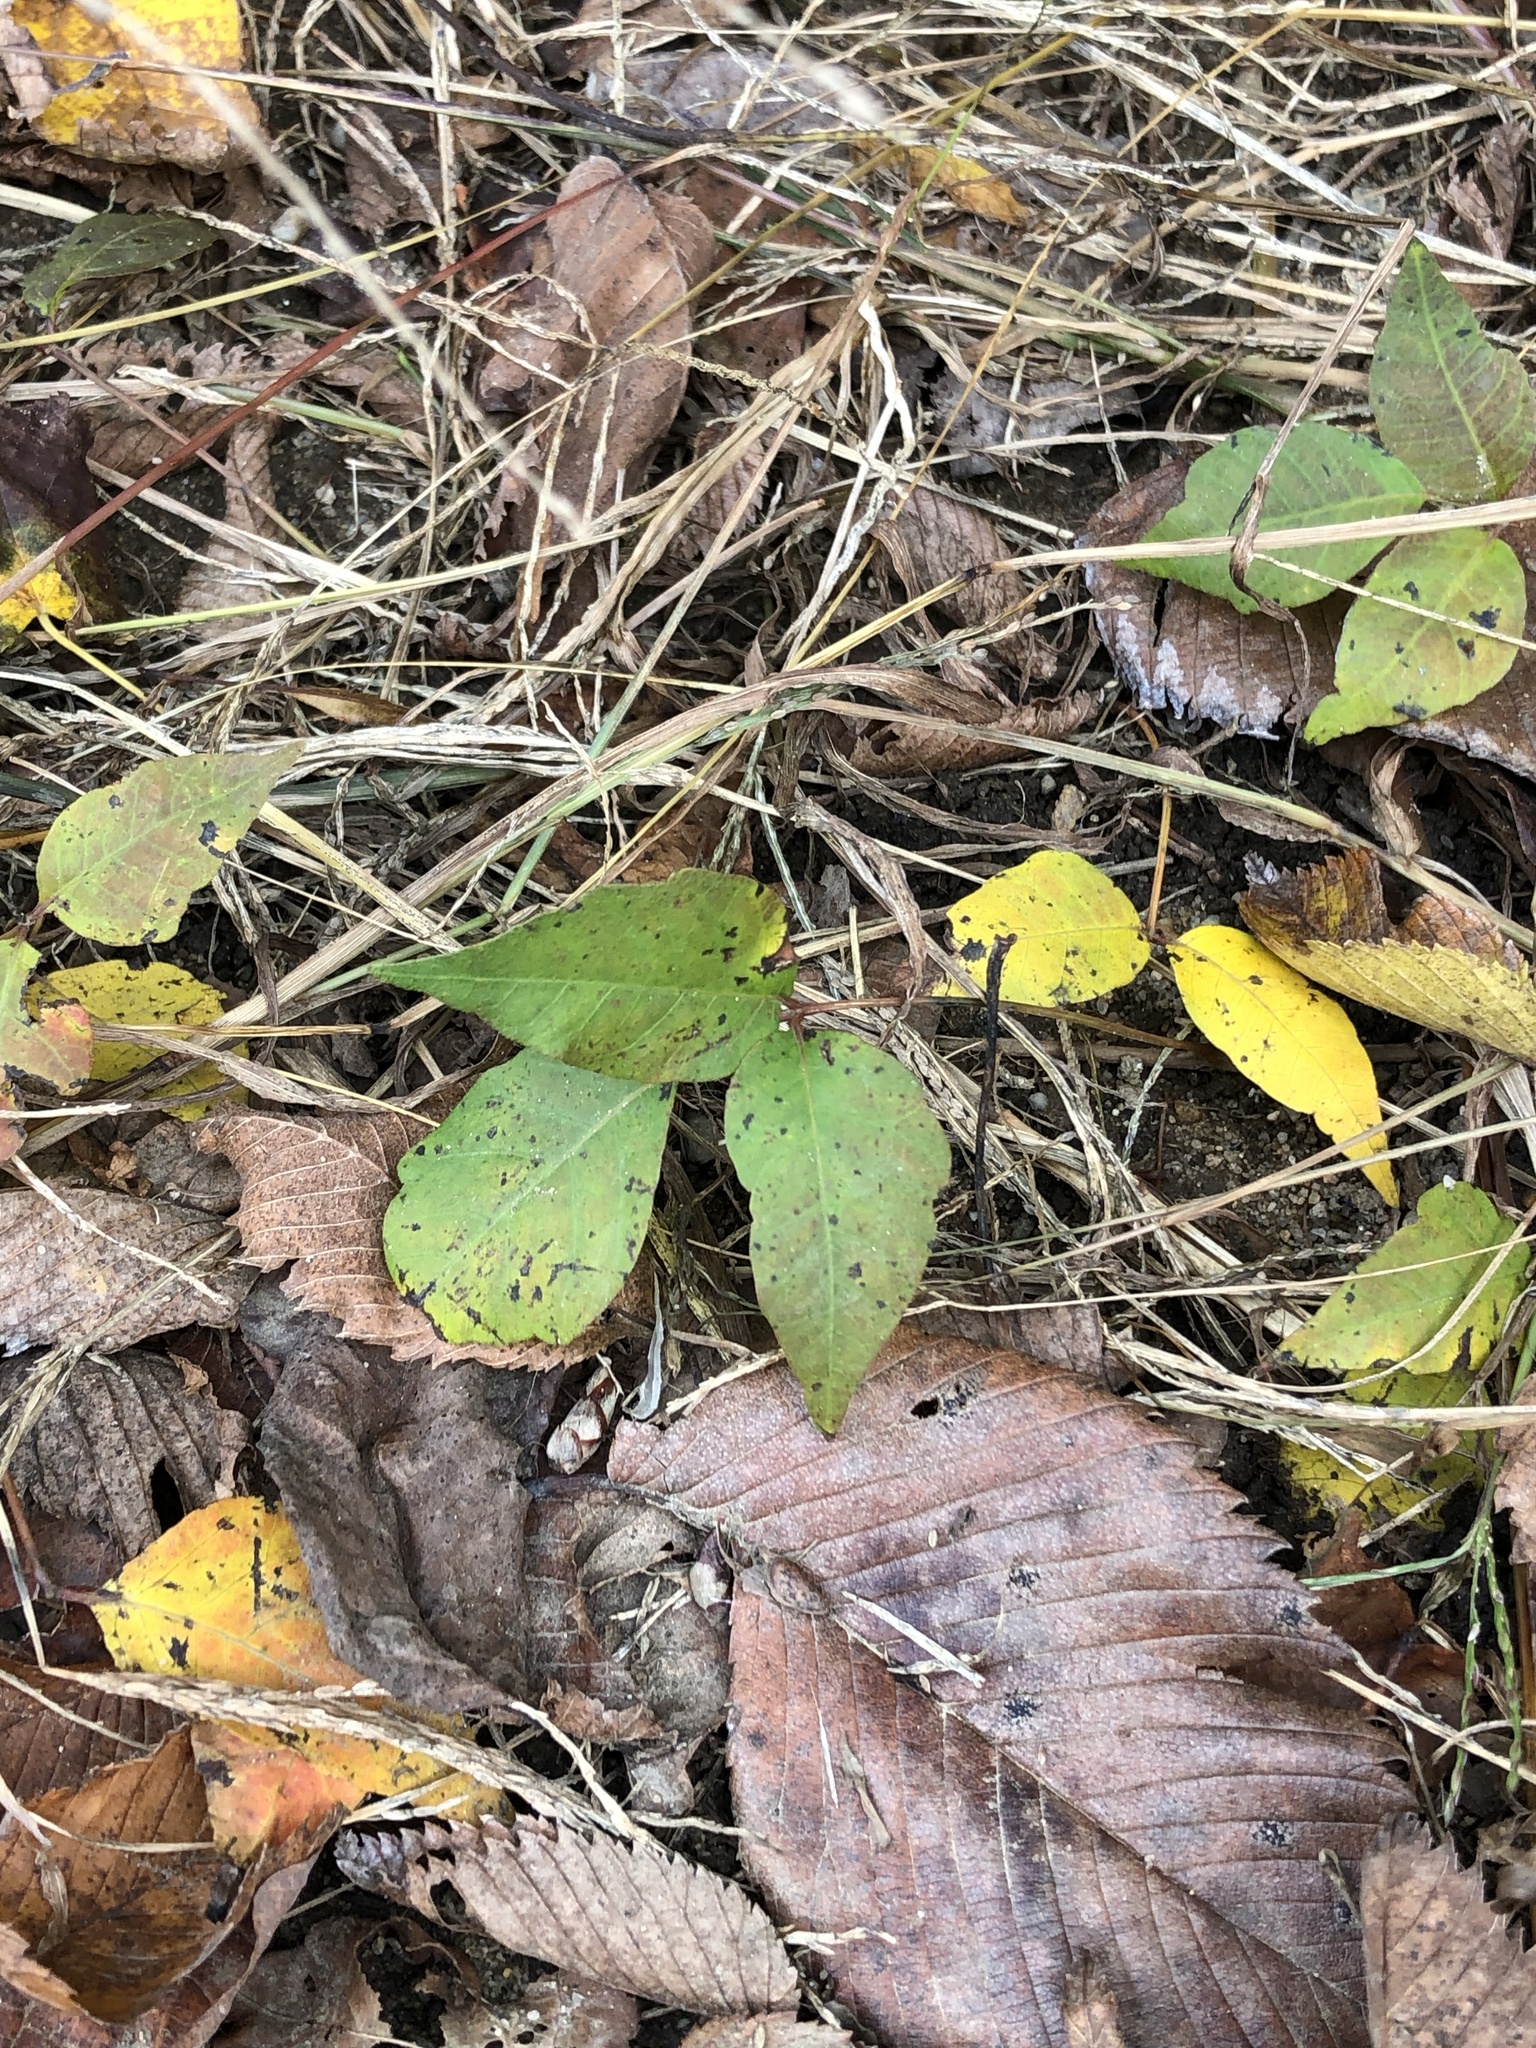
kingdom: Plantae
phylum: Tracheophyta
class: Magnoliopsida
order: Sapindales
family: Anacardiaceae
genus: Toxicodendron
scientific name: Toxicodendron radicans
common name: Poison ivy
